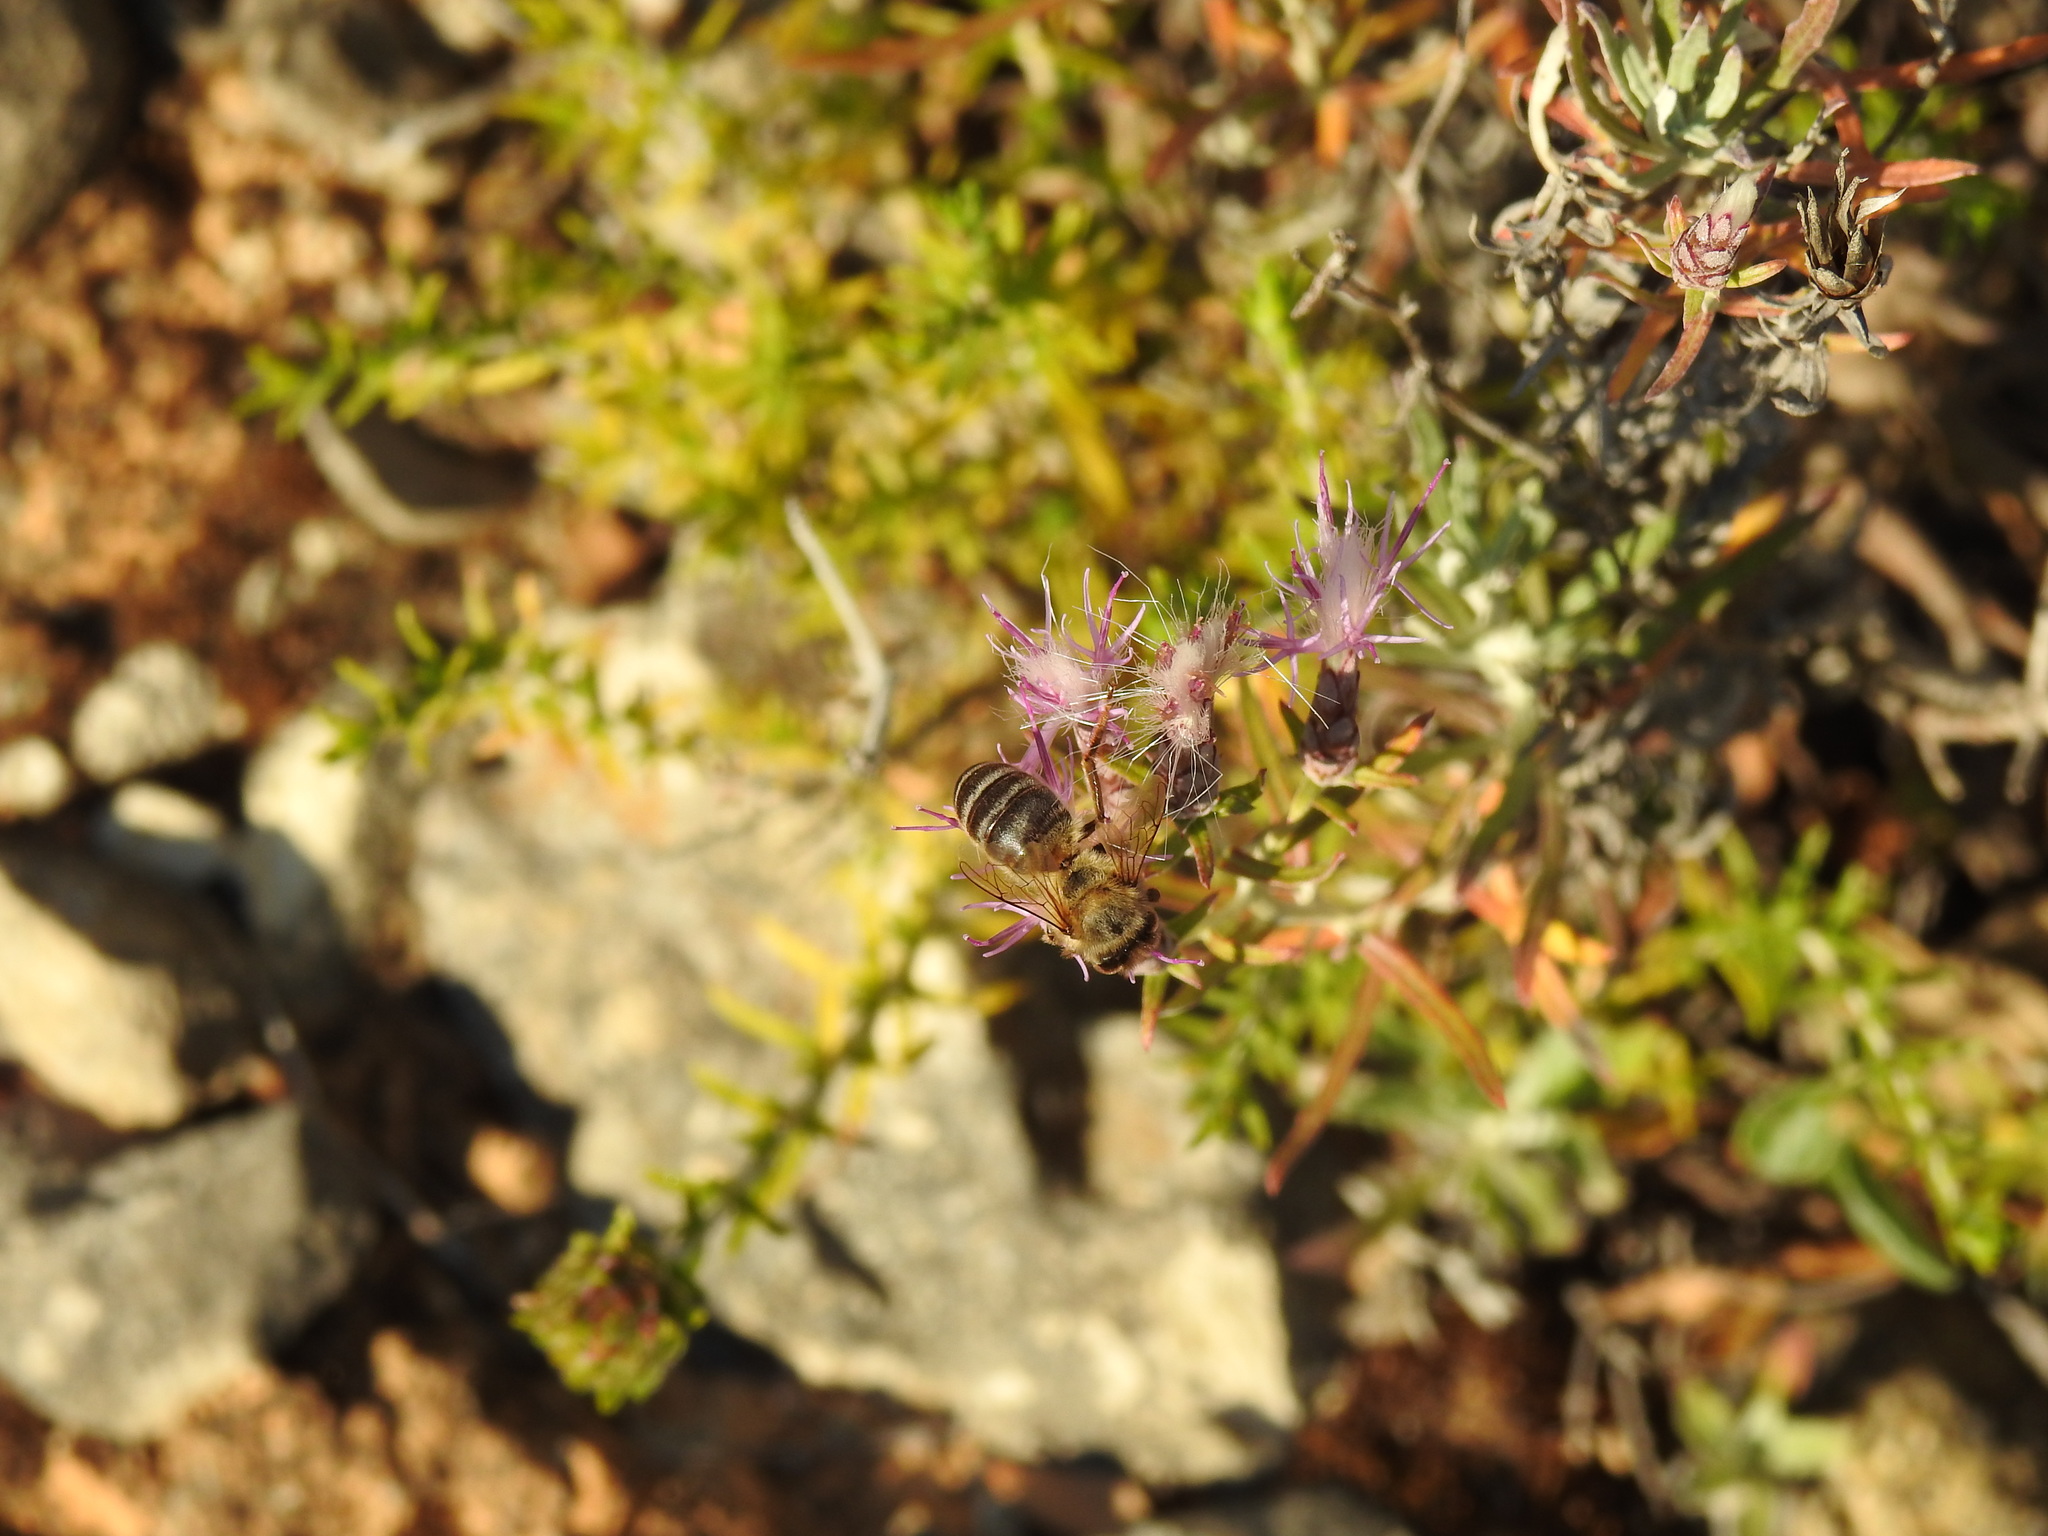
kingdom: Animalia
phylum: Arthropoda
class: Insecta
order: Hymenoptera
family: Apidae
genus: Apis
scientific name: Apis mellifera
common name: Honey bee
